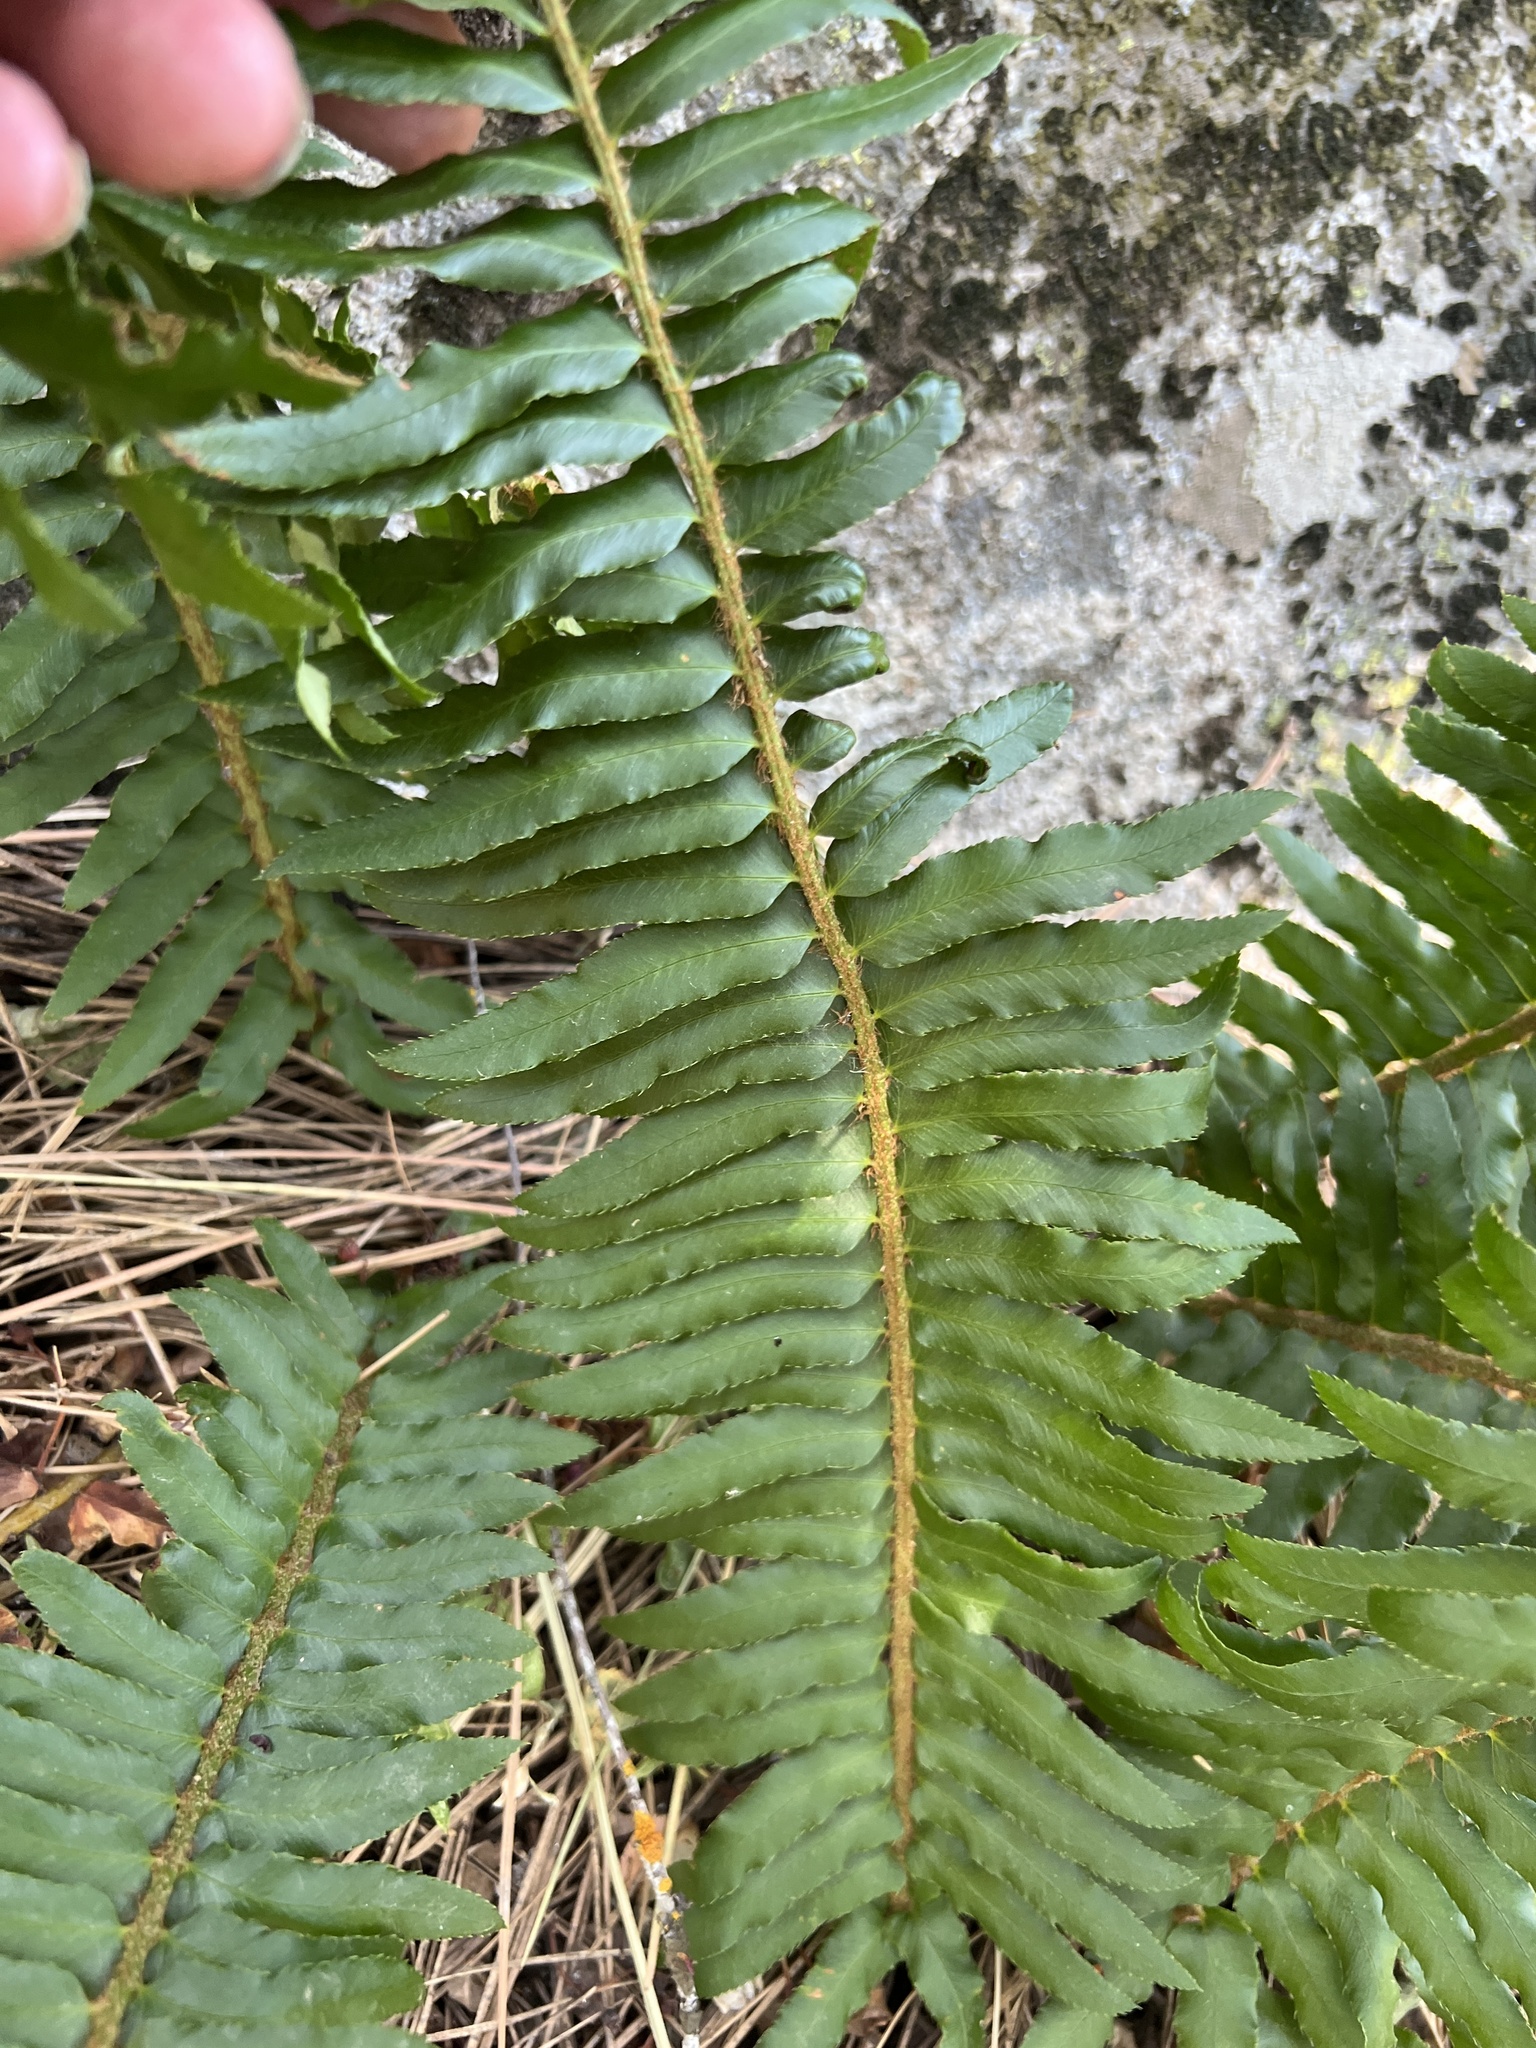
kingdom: Plantae
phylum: Tracheophyta
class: Polypodiopsida
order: Polypodiales
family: Dryopteridaceae
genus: Polystichum
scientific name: Polystichum munitum
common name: Western sword-fern
